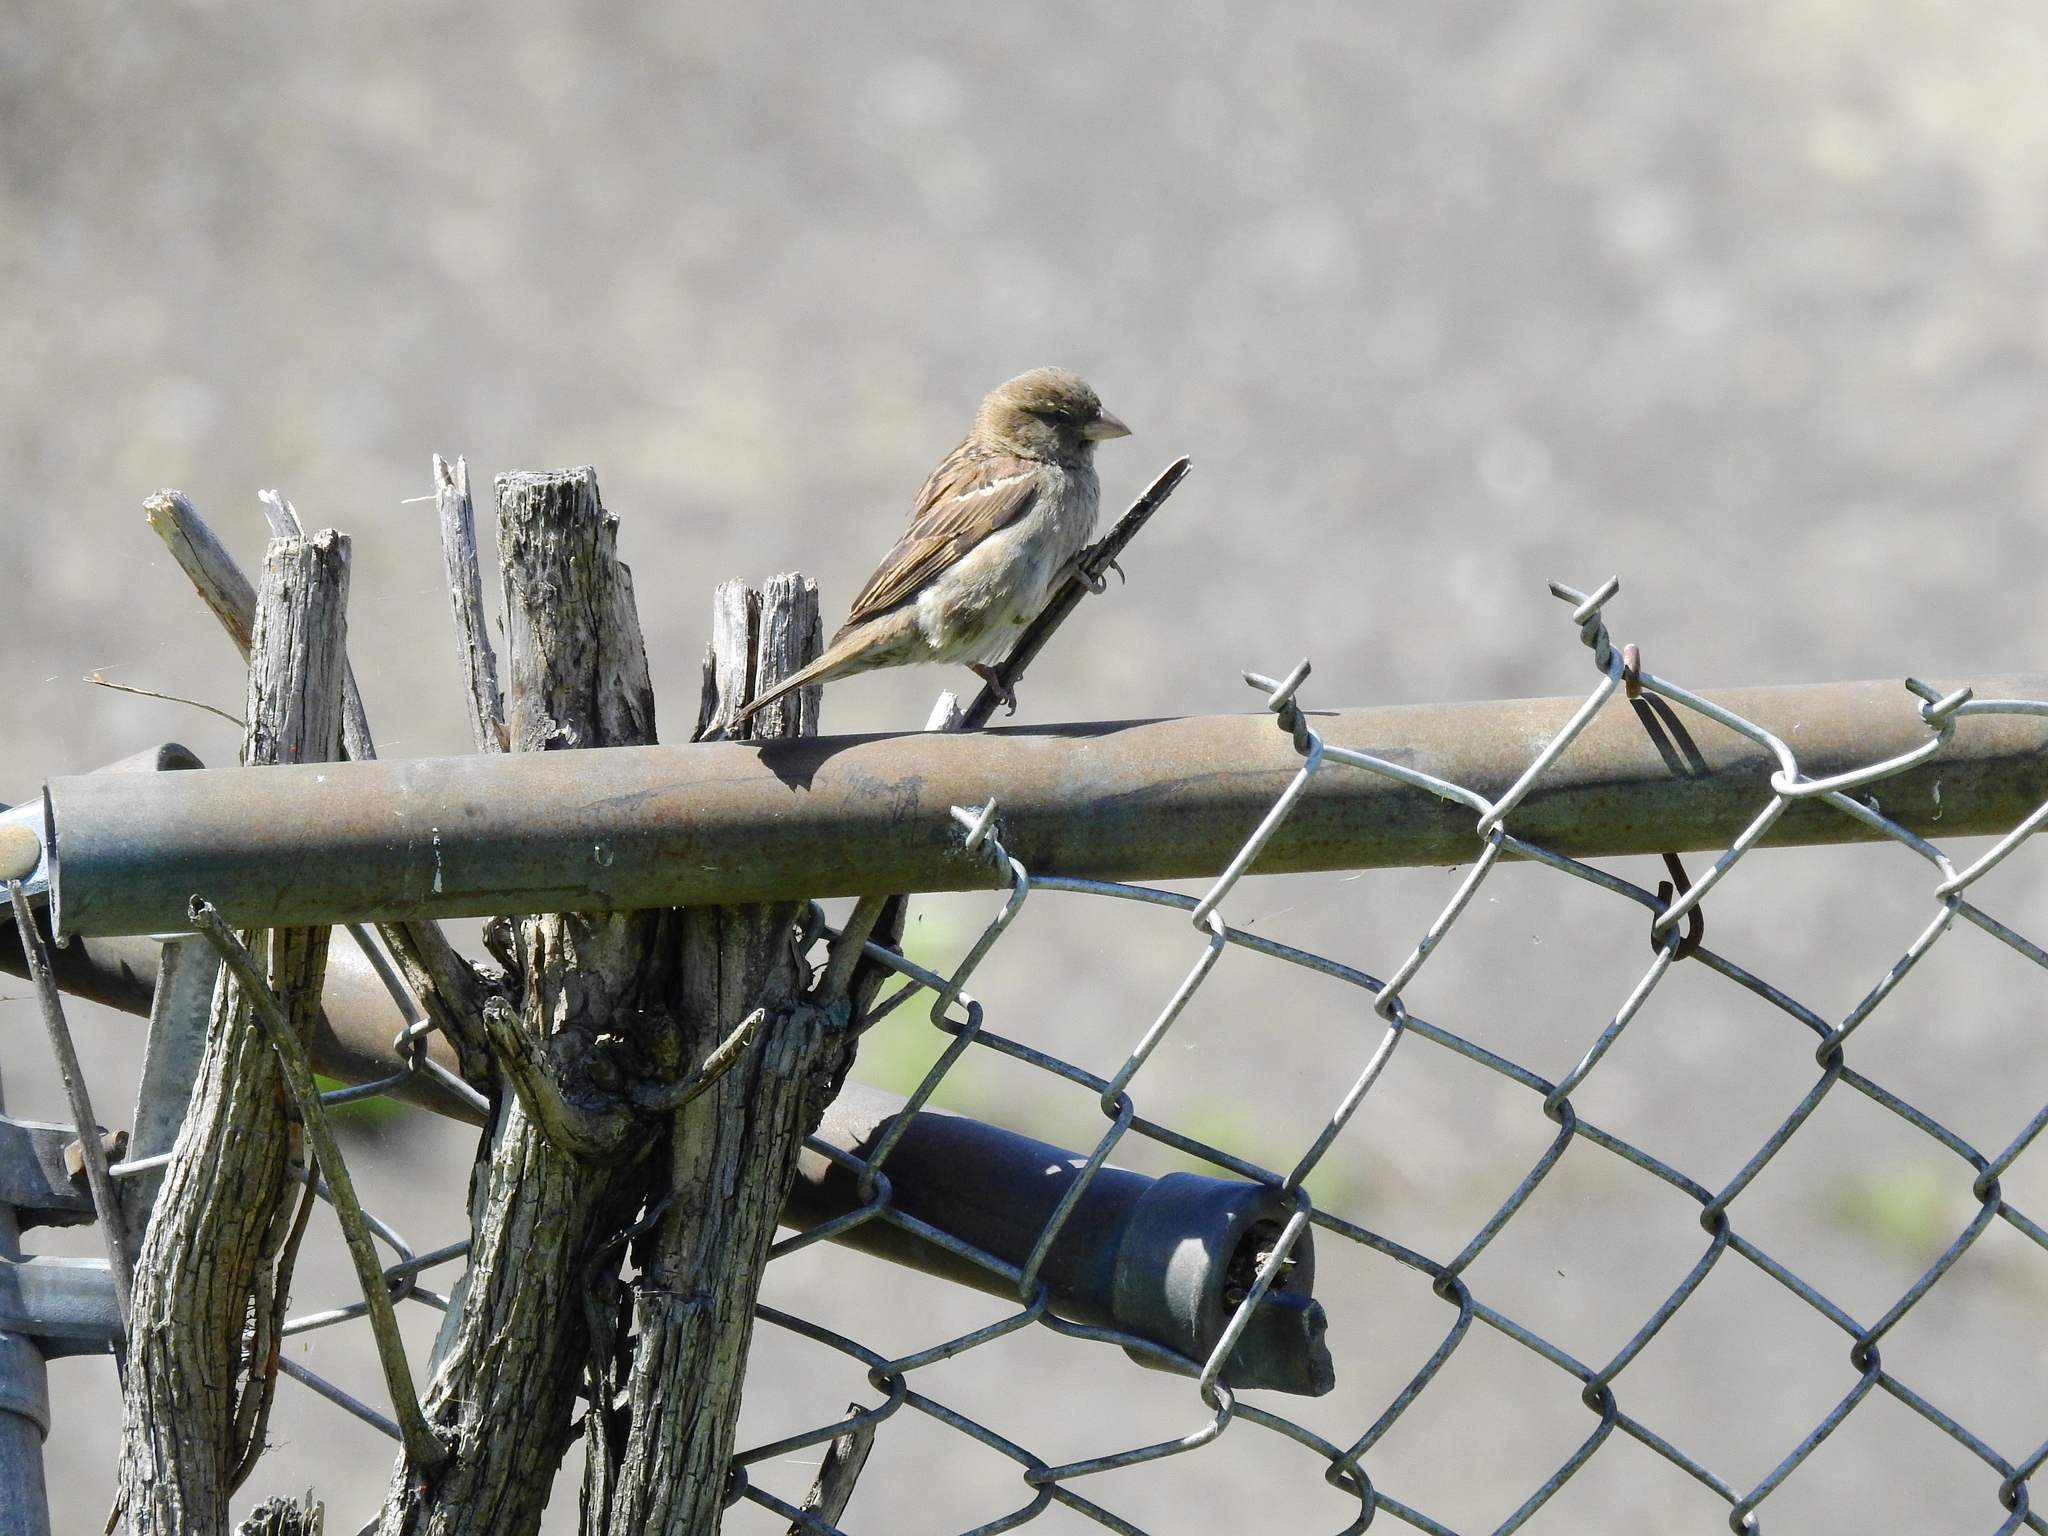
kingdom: Animalia
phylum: Chordata
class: Aves
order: Passeriformes
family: Passeridae
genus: Passer
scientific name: Passer domesticus
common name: House sparrow
